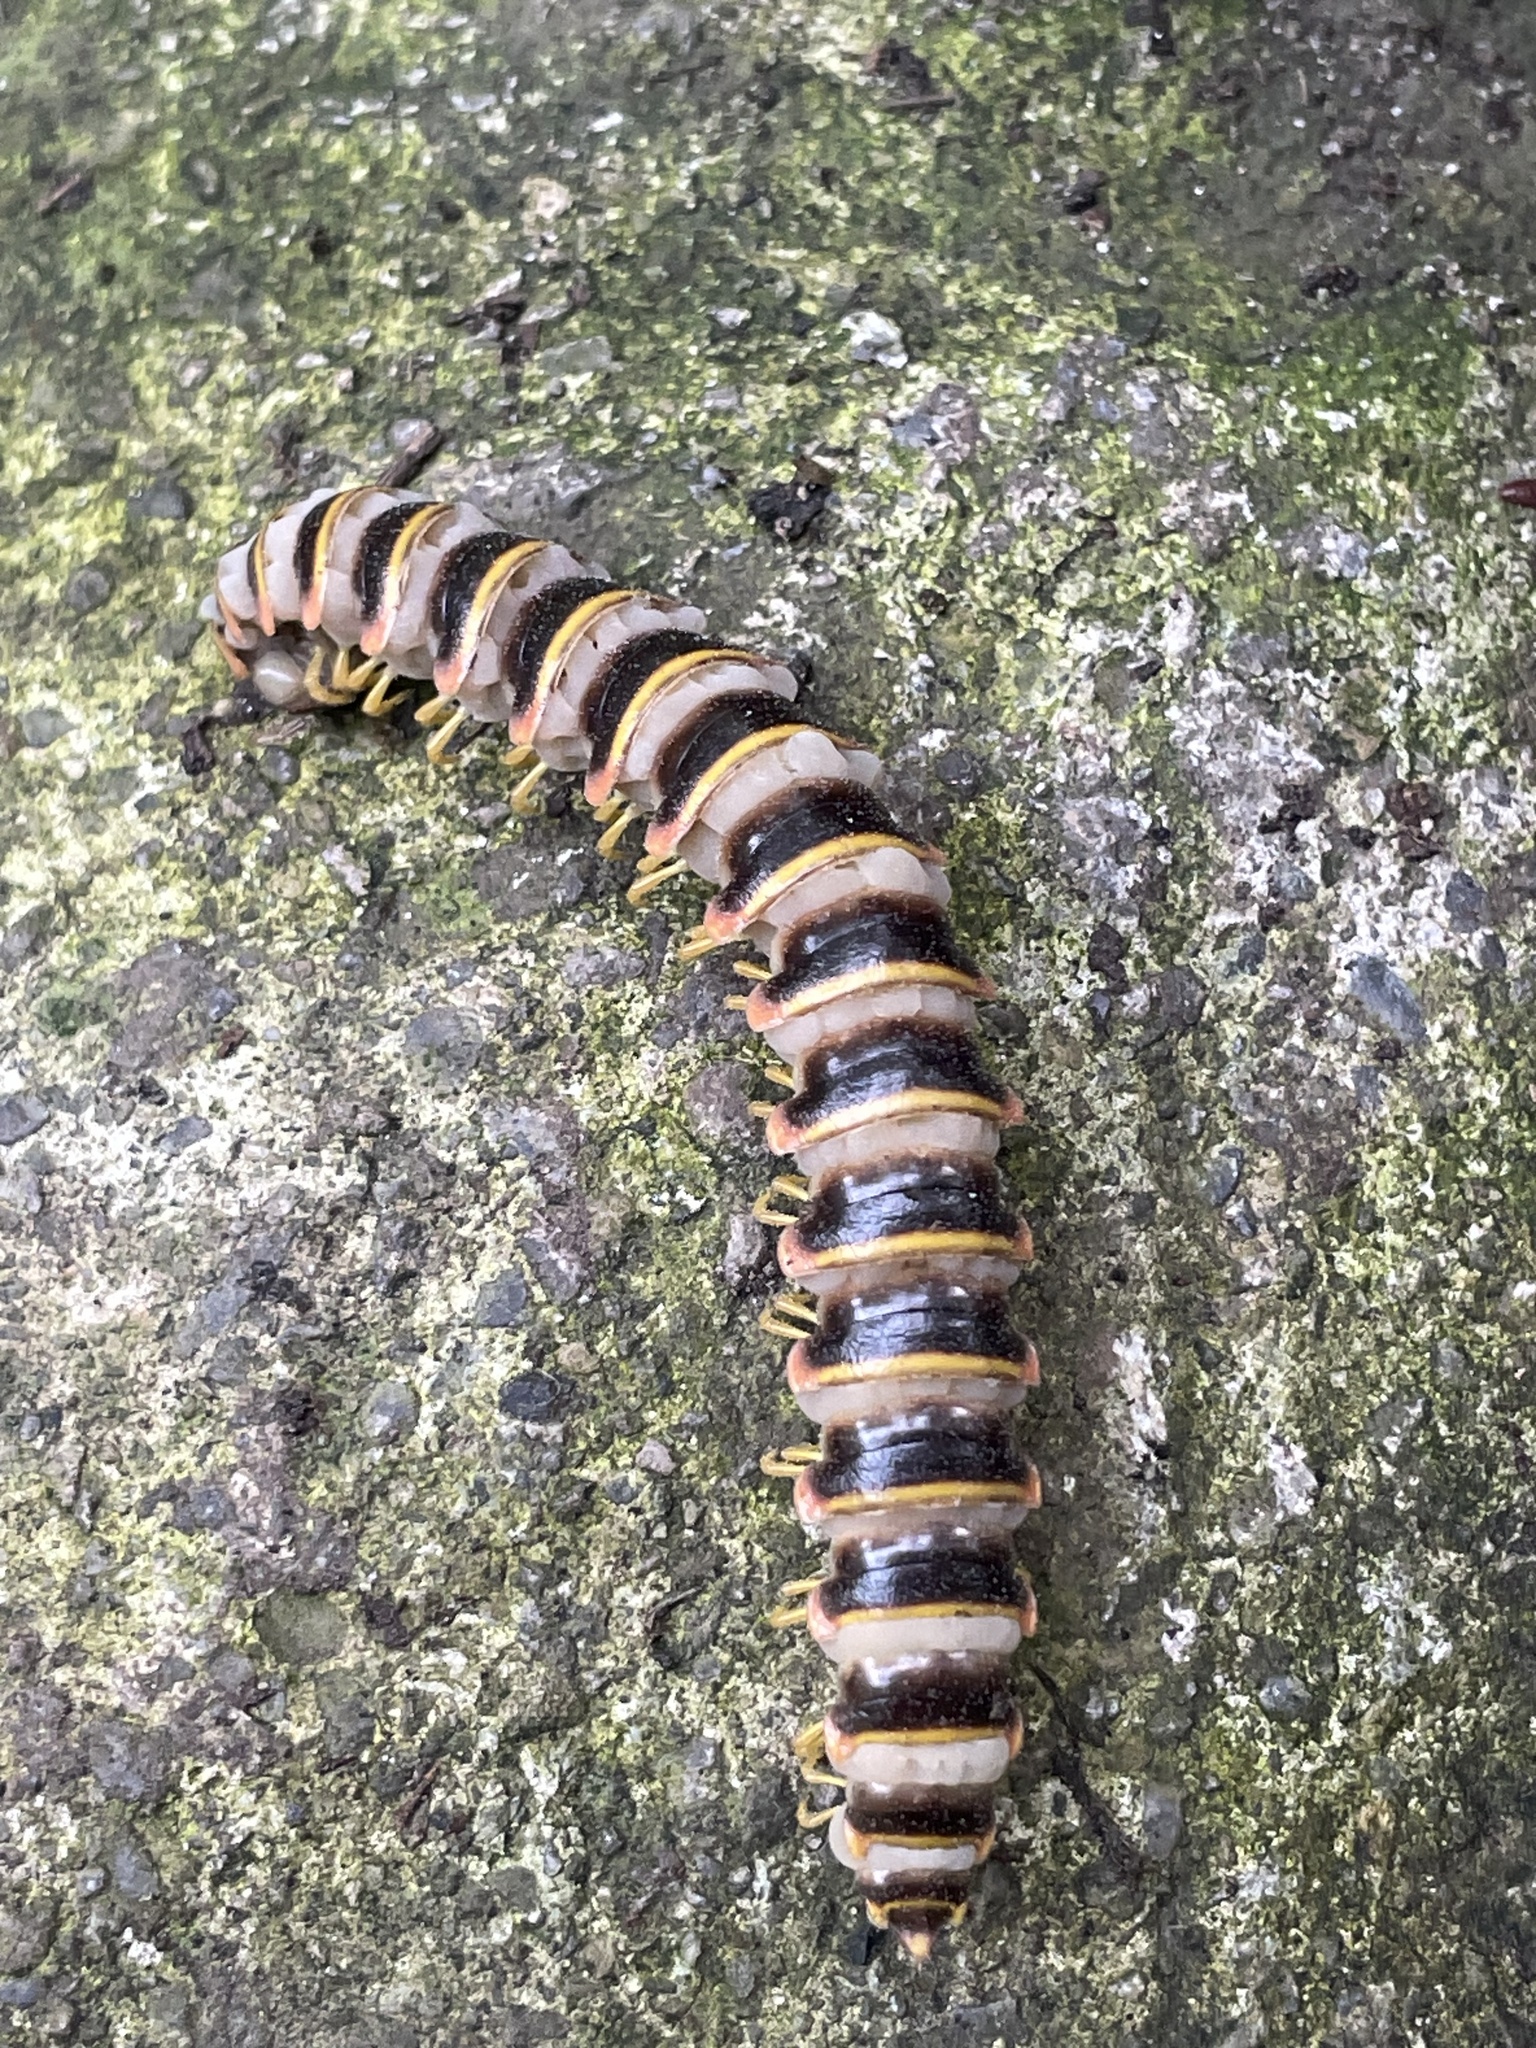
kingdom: Fungi
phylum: Entomophthoromycota
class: Entomophthoromycetes
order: Entomophthorales
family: Entomophthoraceae
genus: Arthrophaga
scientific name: Arthrophaga myriapodina
